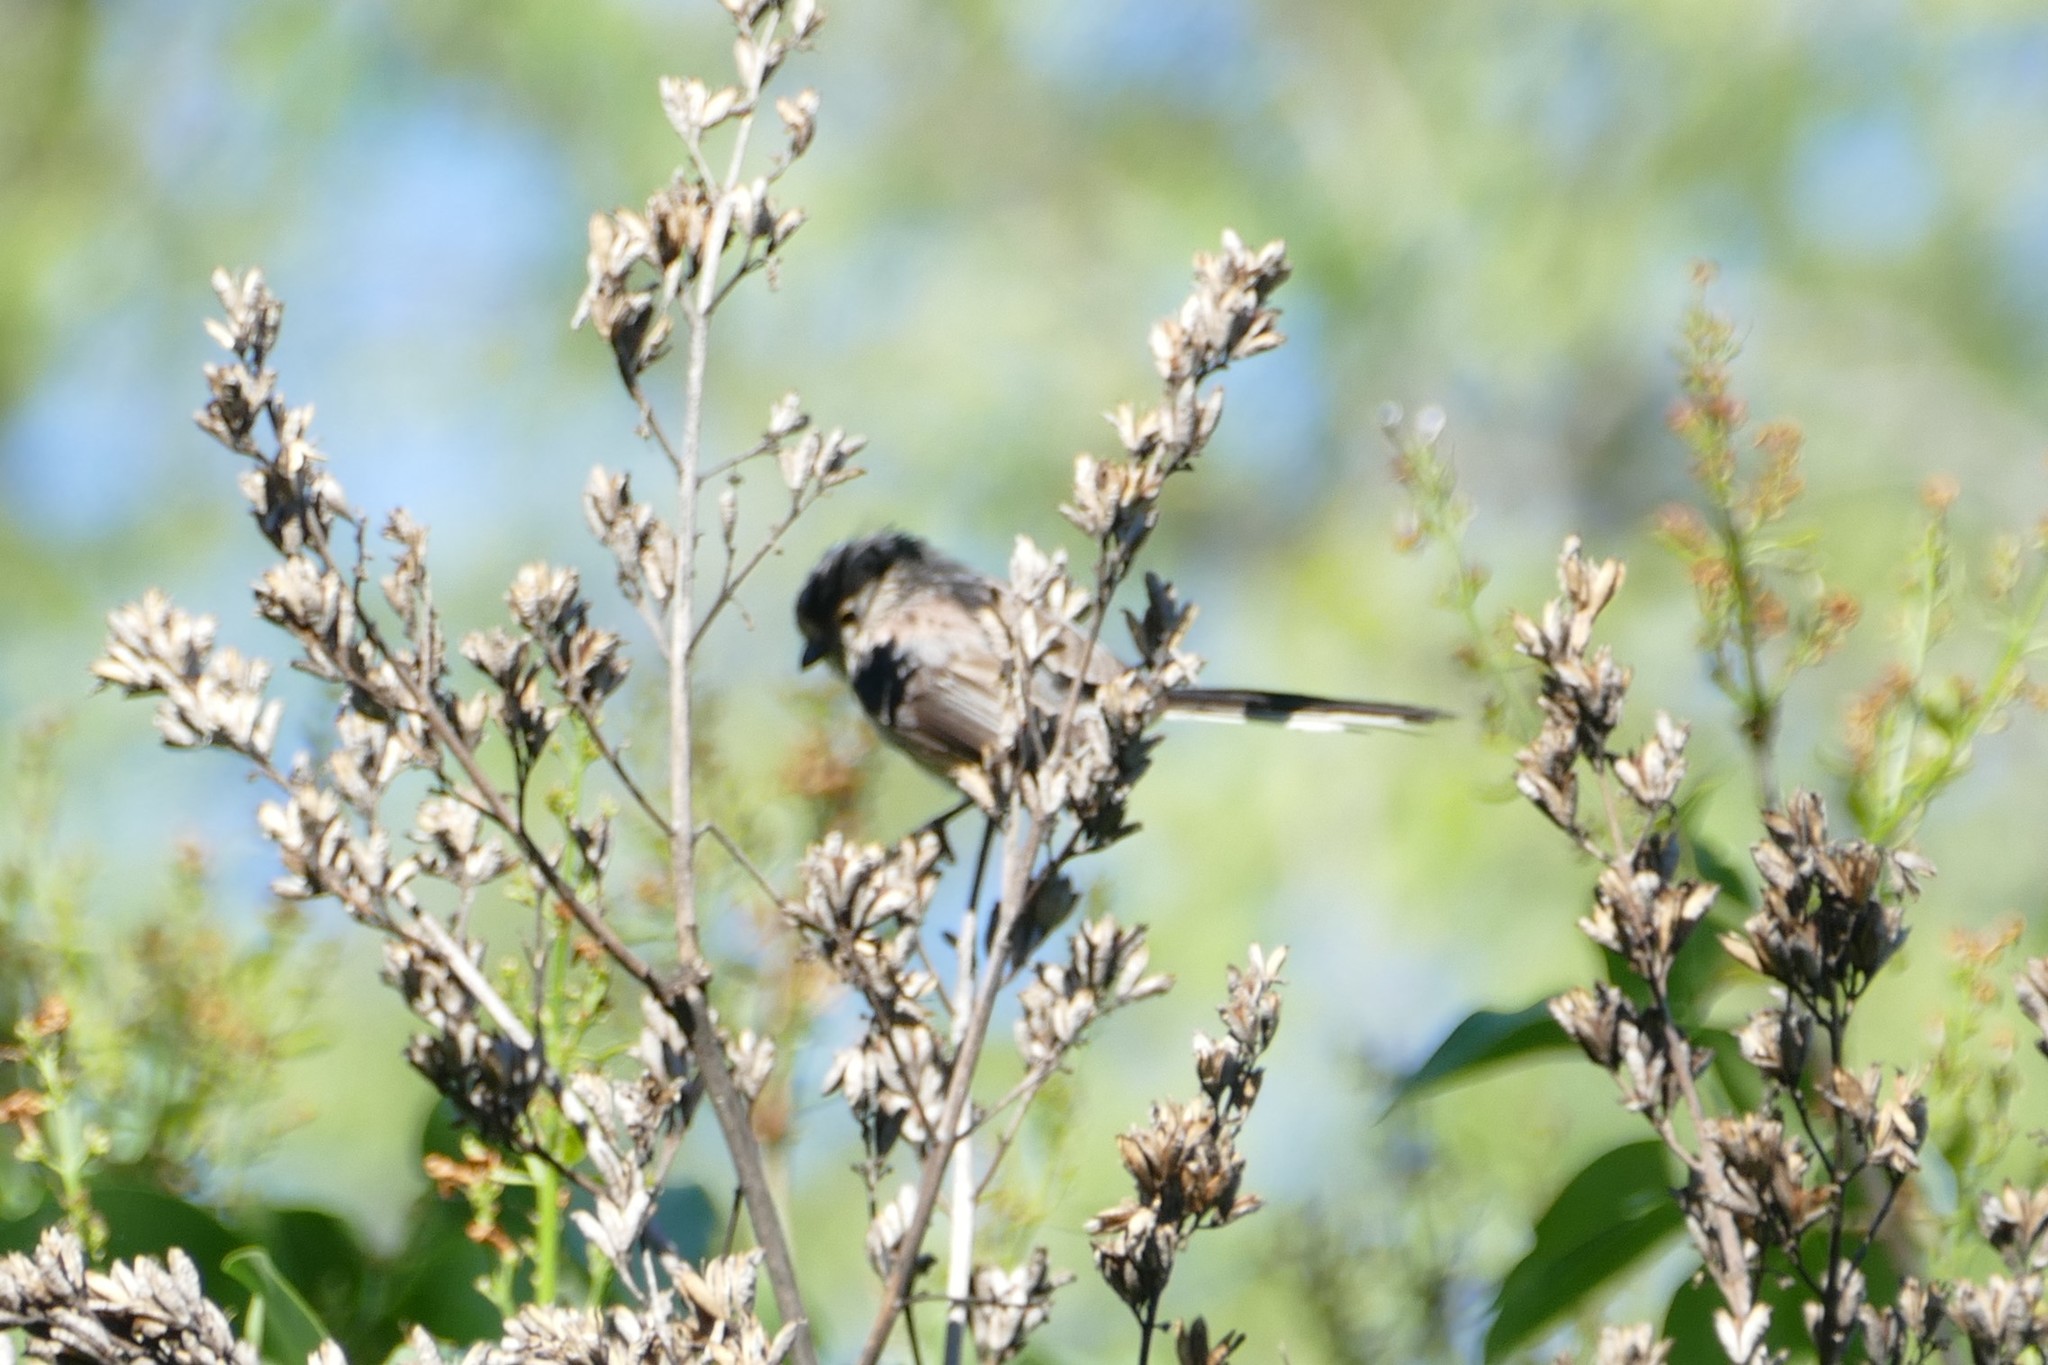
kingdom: Animalia
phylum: Chordata
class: Aves
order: Passeriformes
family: Aegithalidae
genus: Aegithalos
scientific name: Aegithalos caudatus
